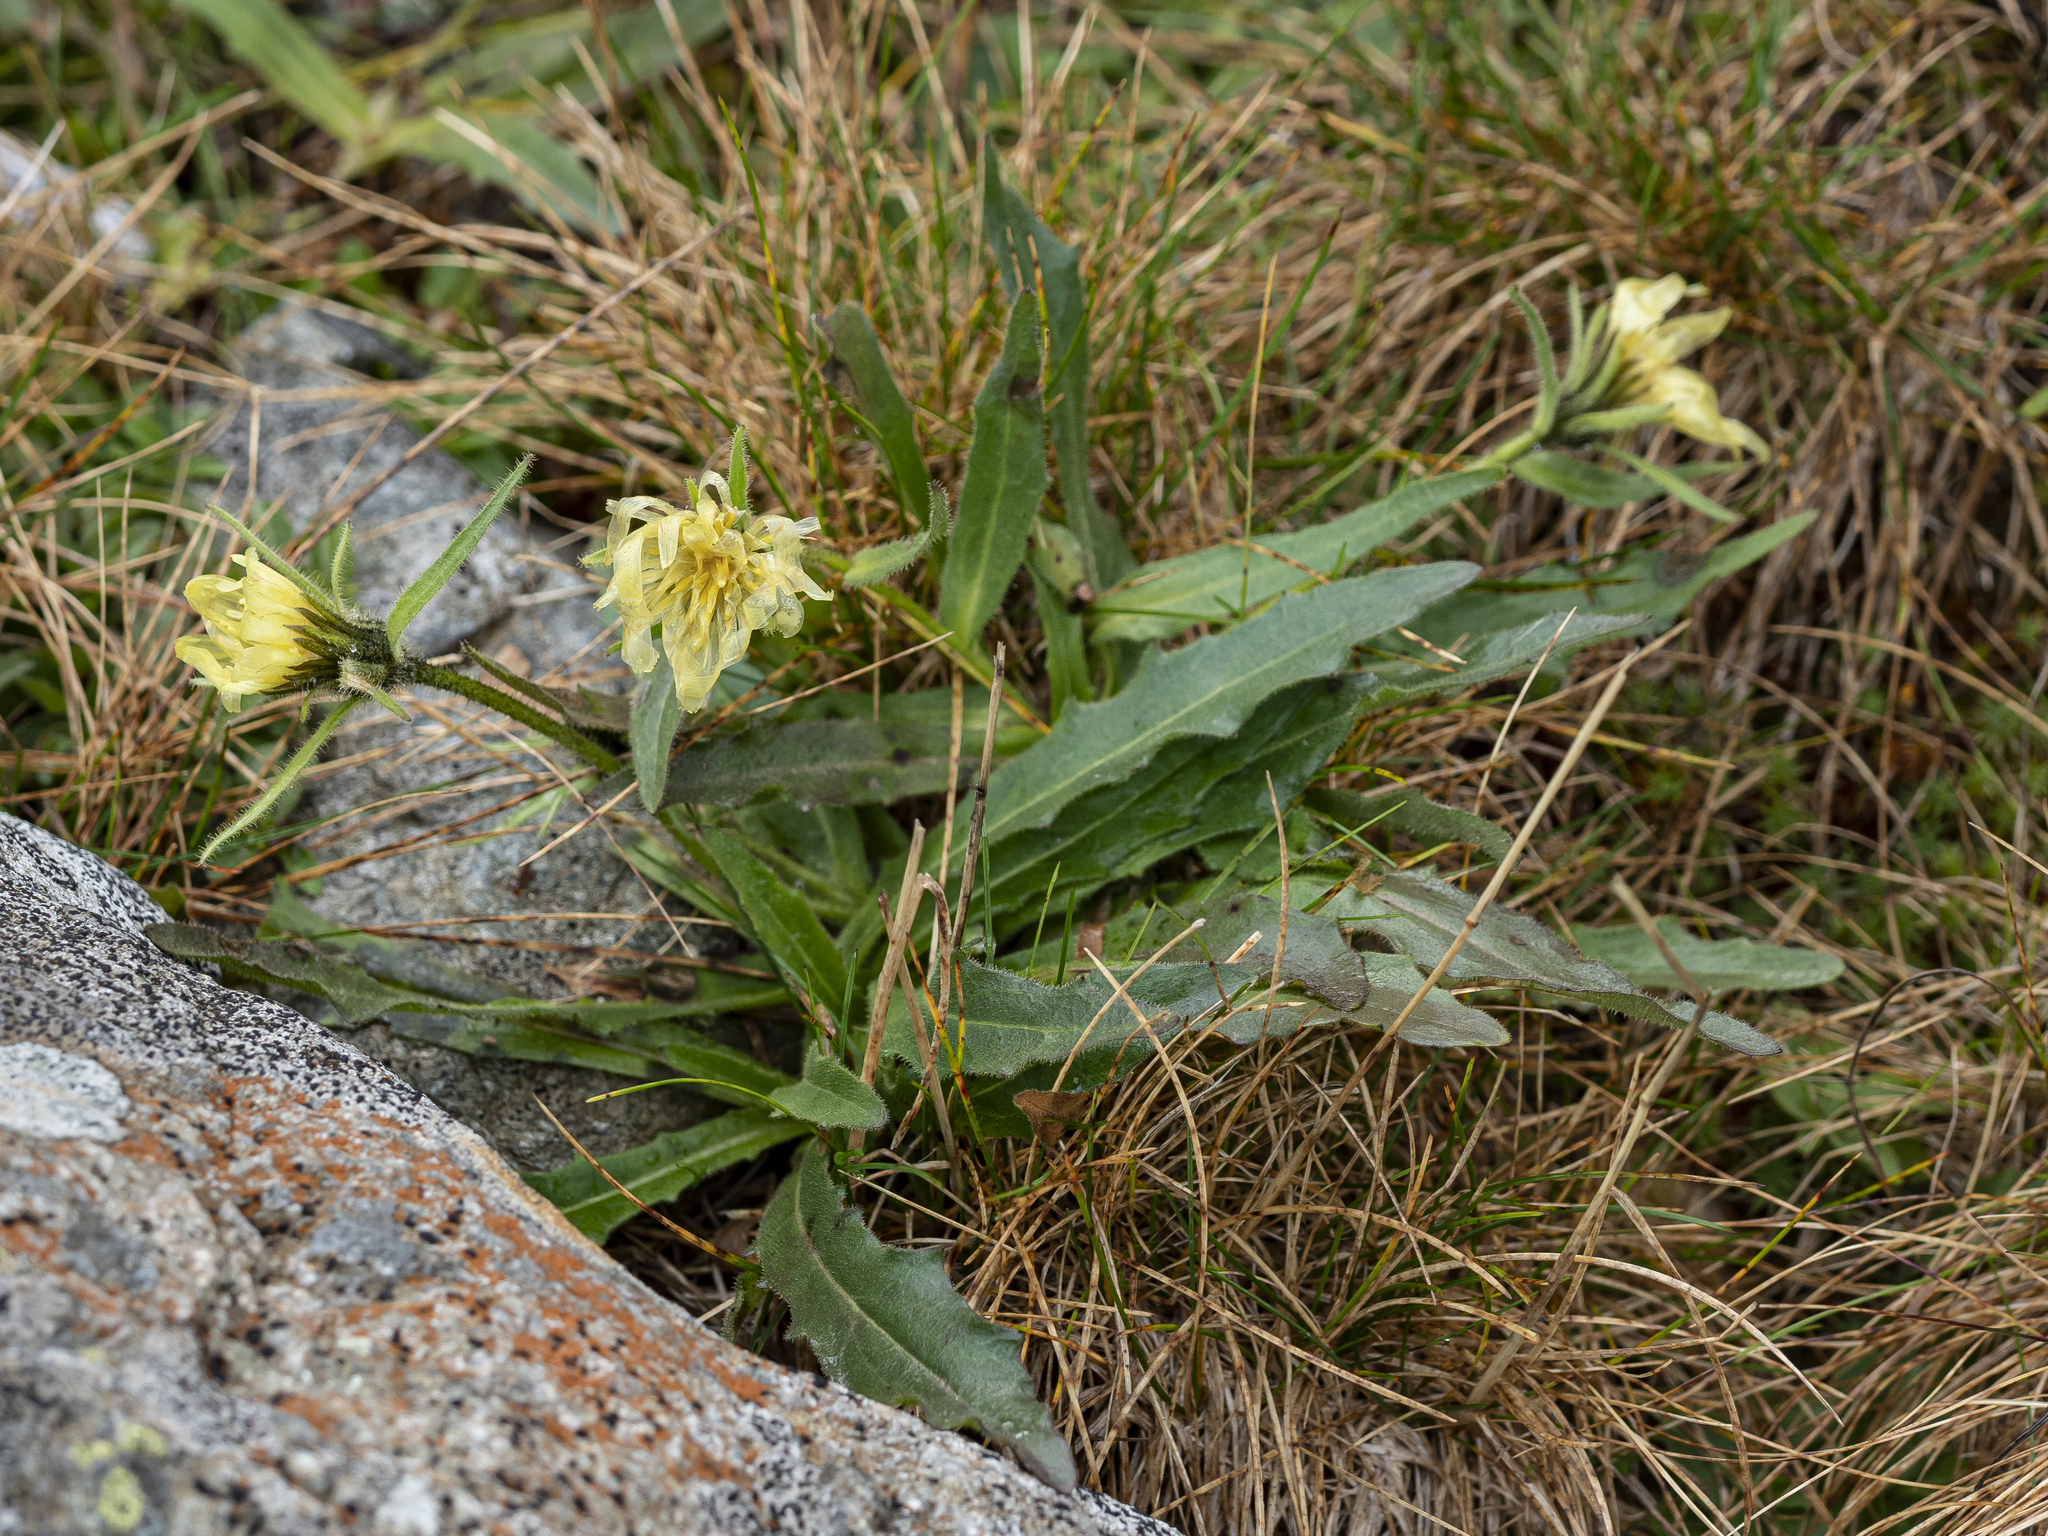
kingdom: Plantae
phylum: Tracheophyta
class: Magnoliopsida
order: Asterales
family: Asteraceae
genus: Schlagintweitia
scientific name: Schlagintweitia intybacea
